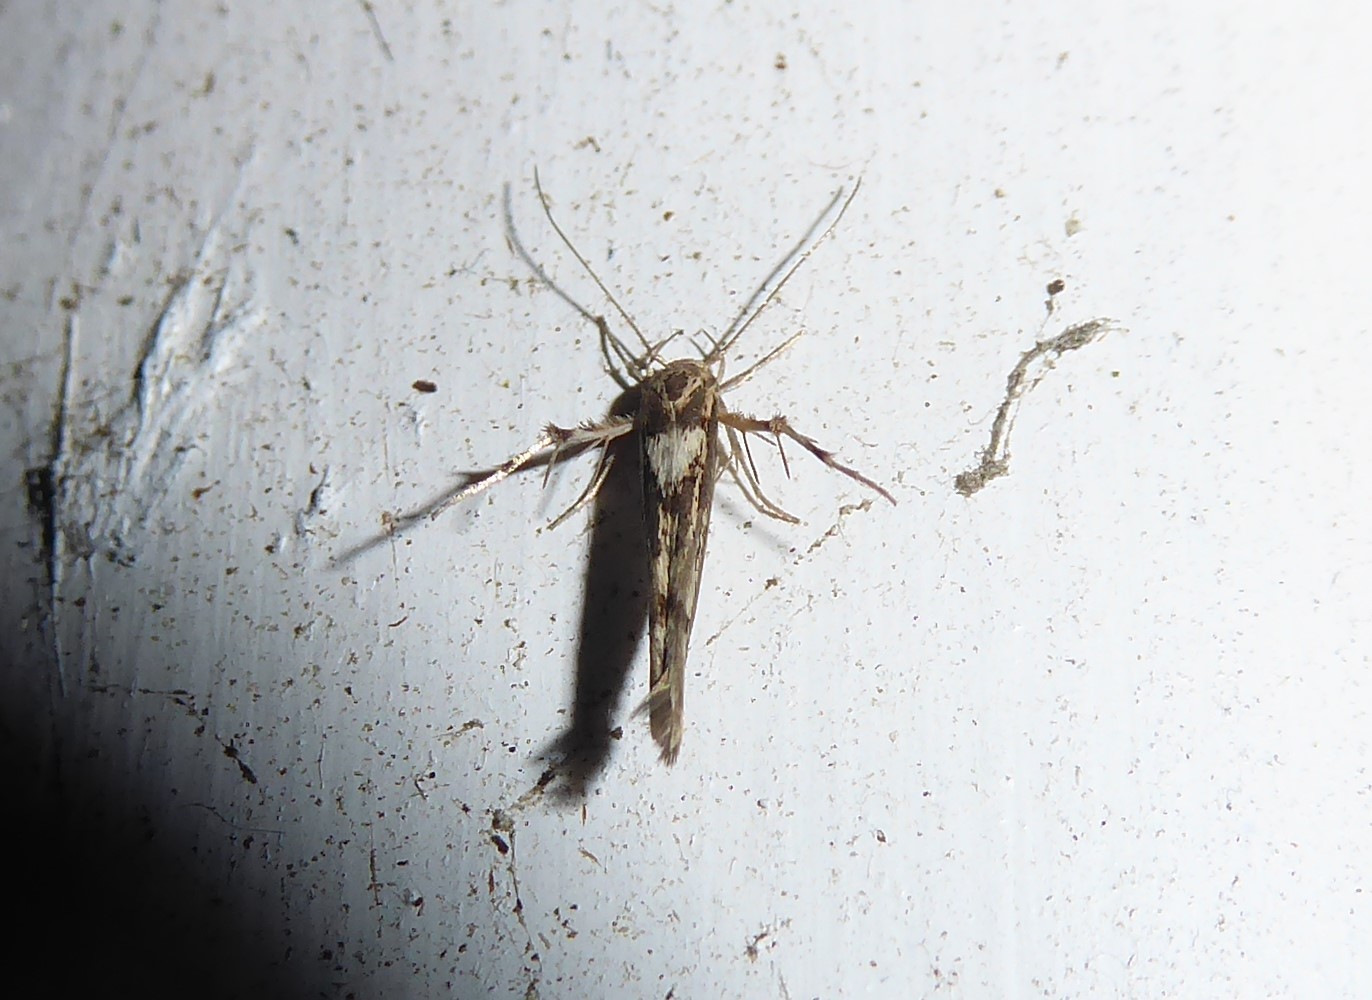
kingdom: Animalia
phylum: Arthropoda
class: Insecta
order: Lepidoptera
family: Stathmopodidae
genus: Stathmopoda
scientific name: Stathmopoda plumbiflua
